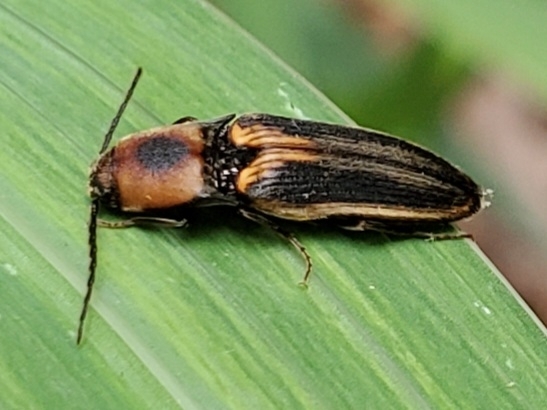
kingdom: Animalia
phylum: Arthropoda
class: Insecta
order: Coleoptera
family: Elateridae
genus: Megapenthes
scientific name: Megapenthes
